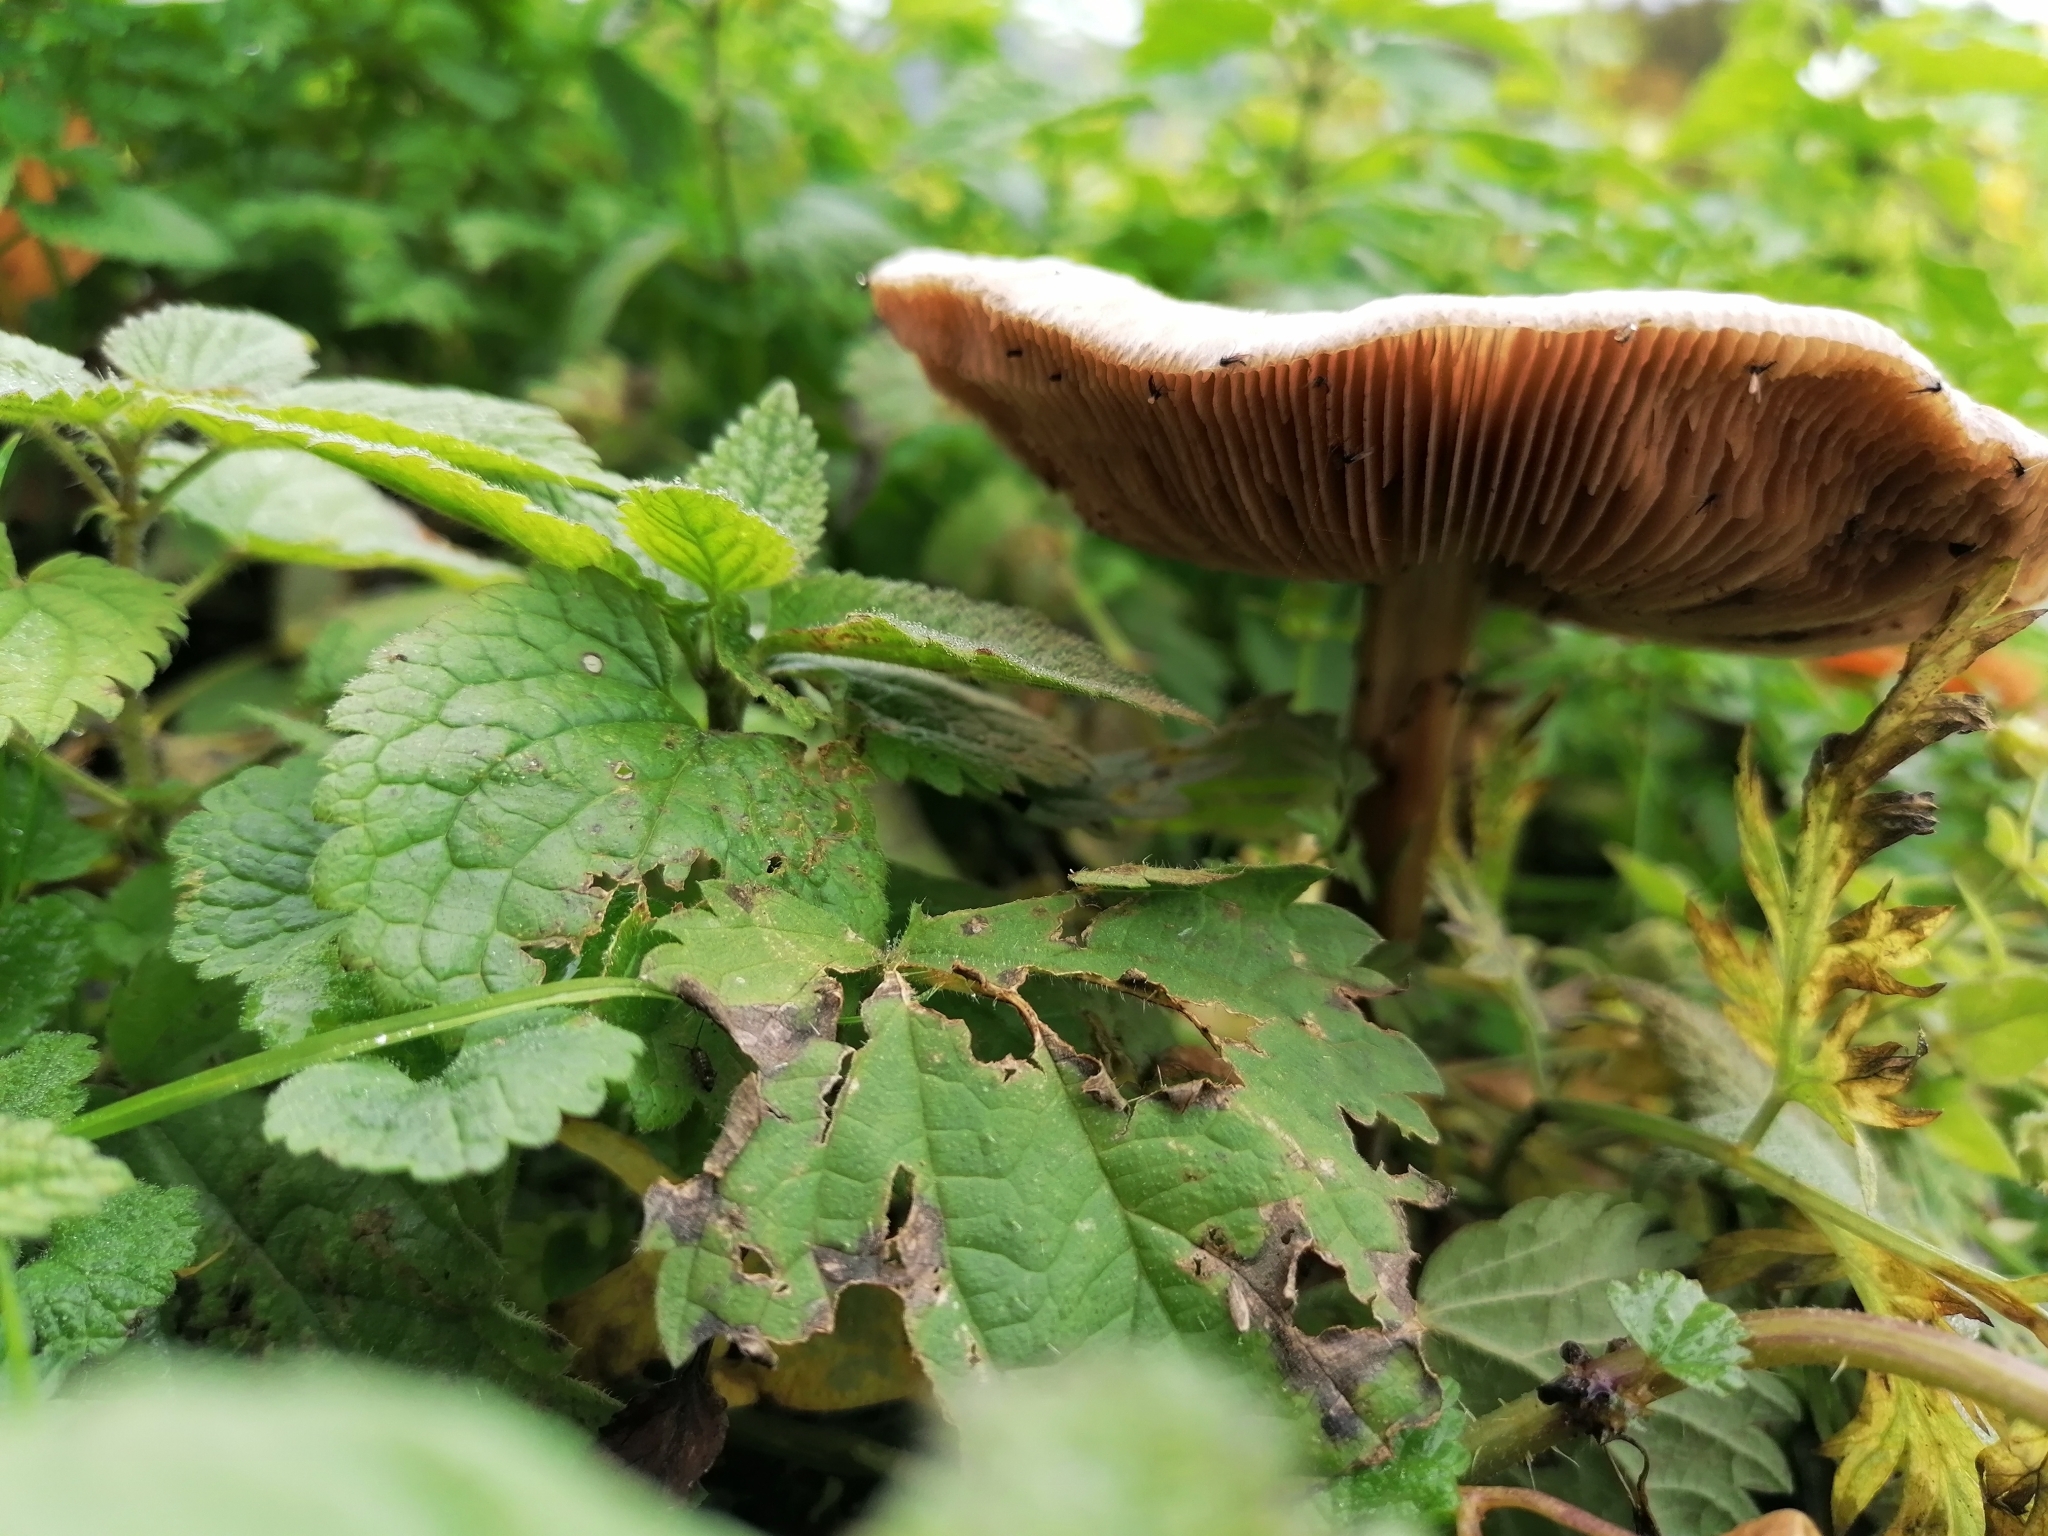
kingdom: Fungi
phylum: Basidiomycota
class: Agaricomycetes
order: Agaricales
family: Pluteaceae
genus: Volvopluteus
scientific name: Volvopluteus gloiocephalus
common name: Stubble rosegill
